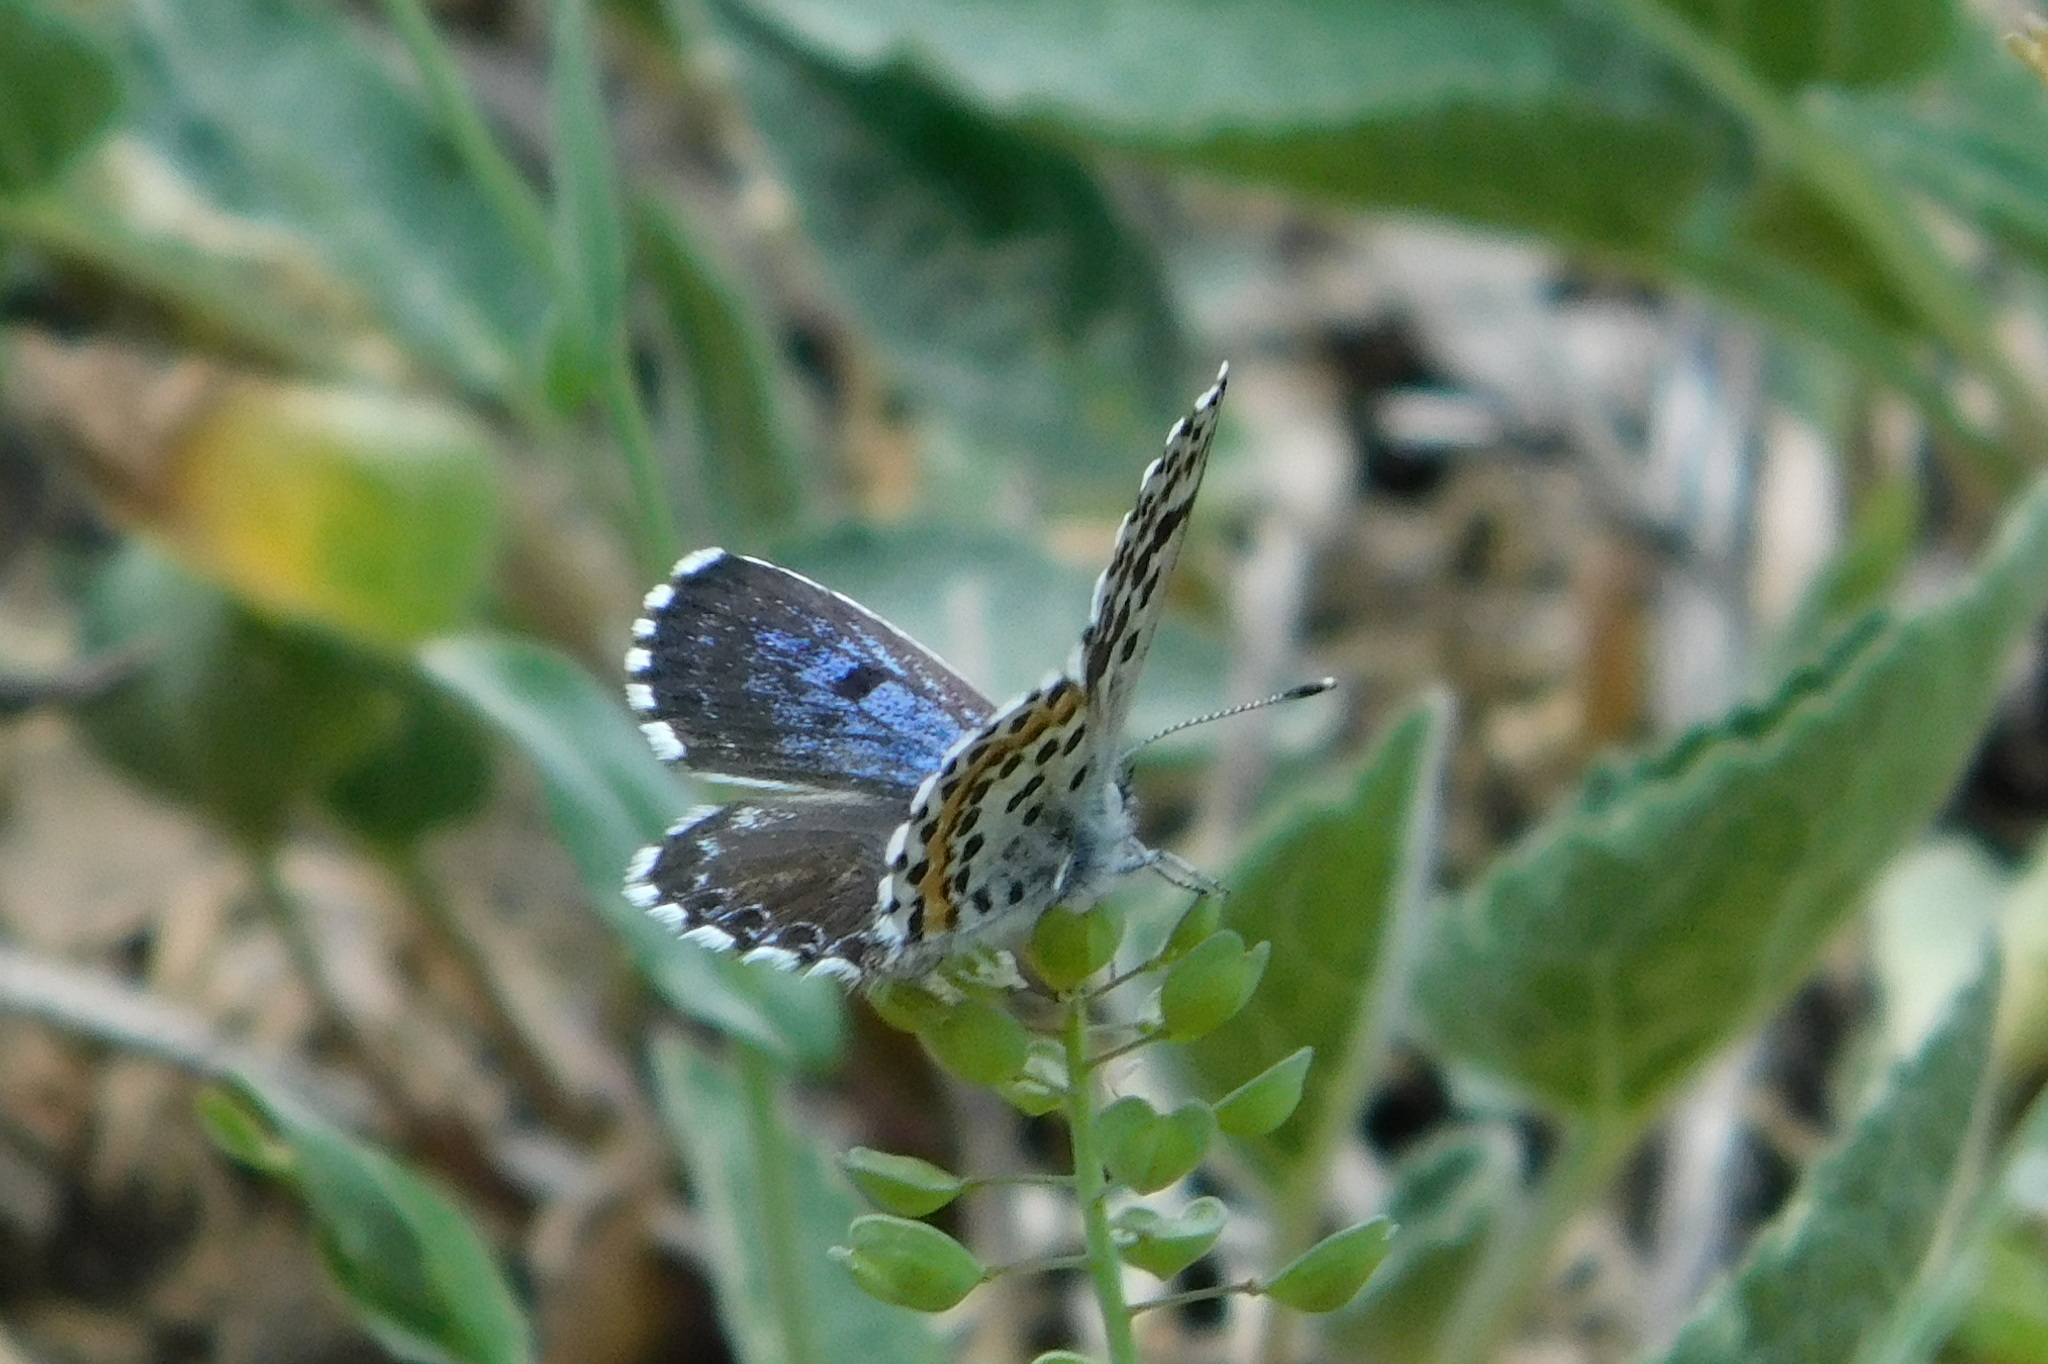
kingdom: Animalia
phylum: Arthropoda
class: Insecta
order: Lepidoptera
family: Lycaenidae
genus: Scolitantides
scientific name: Scolitantides orion
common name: Chequered blue
